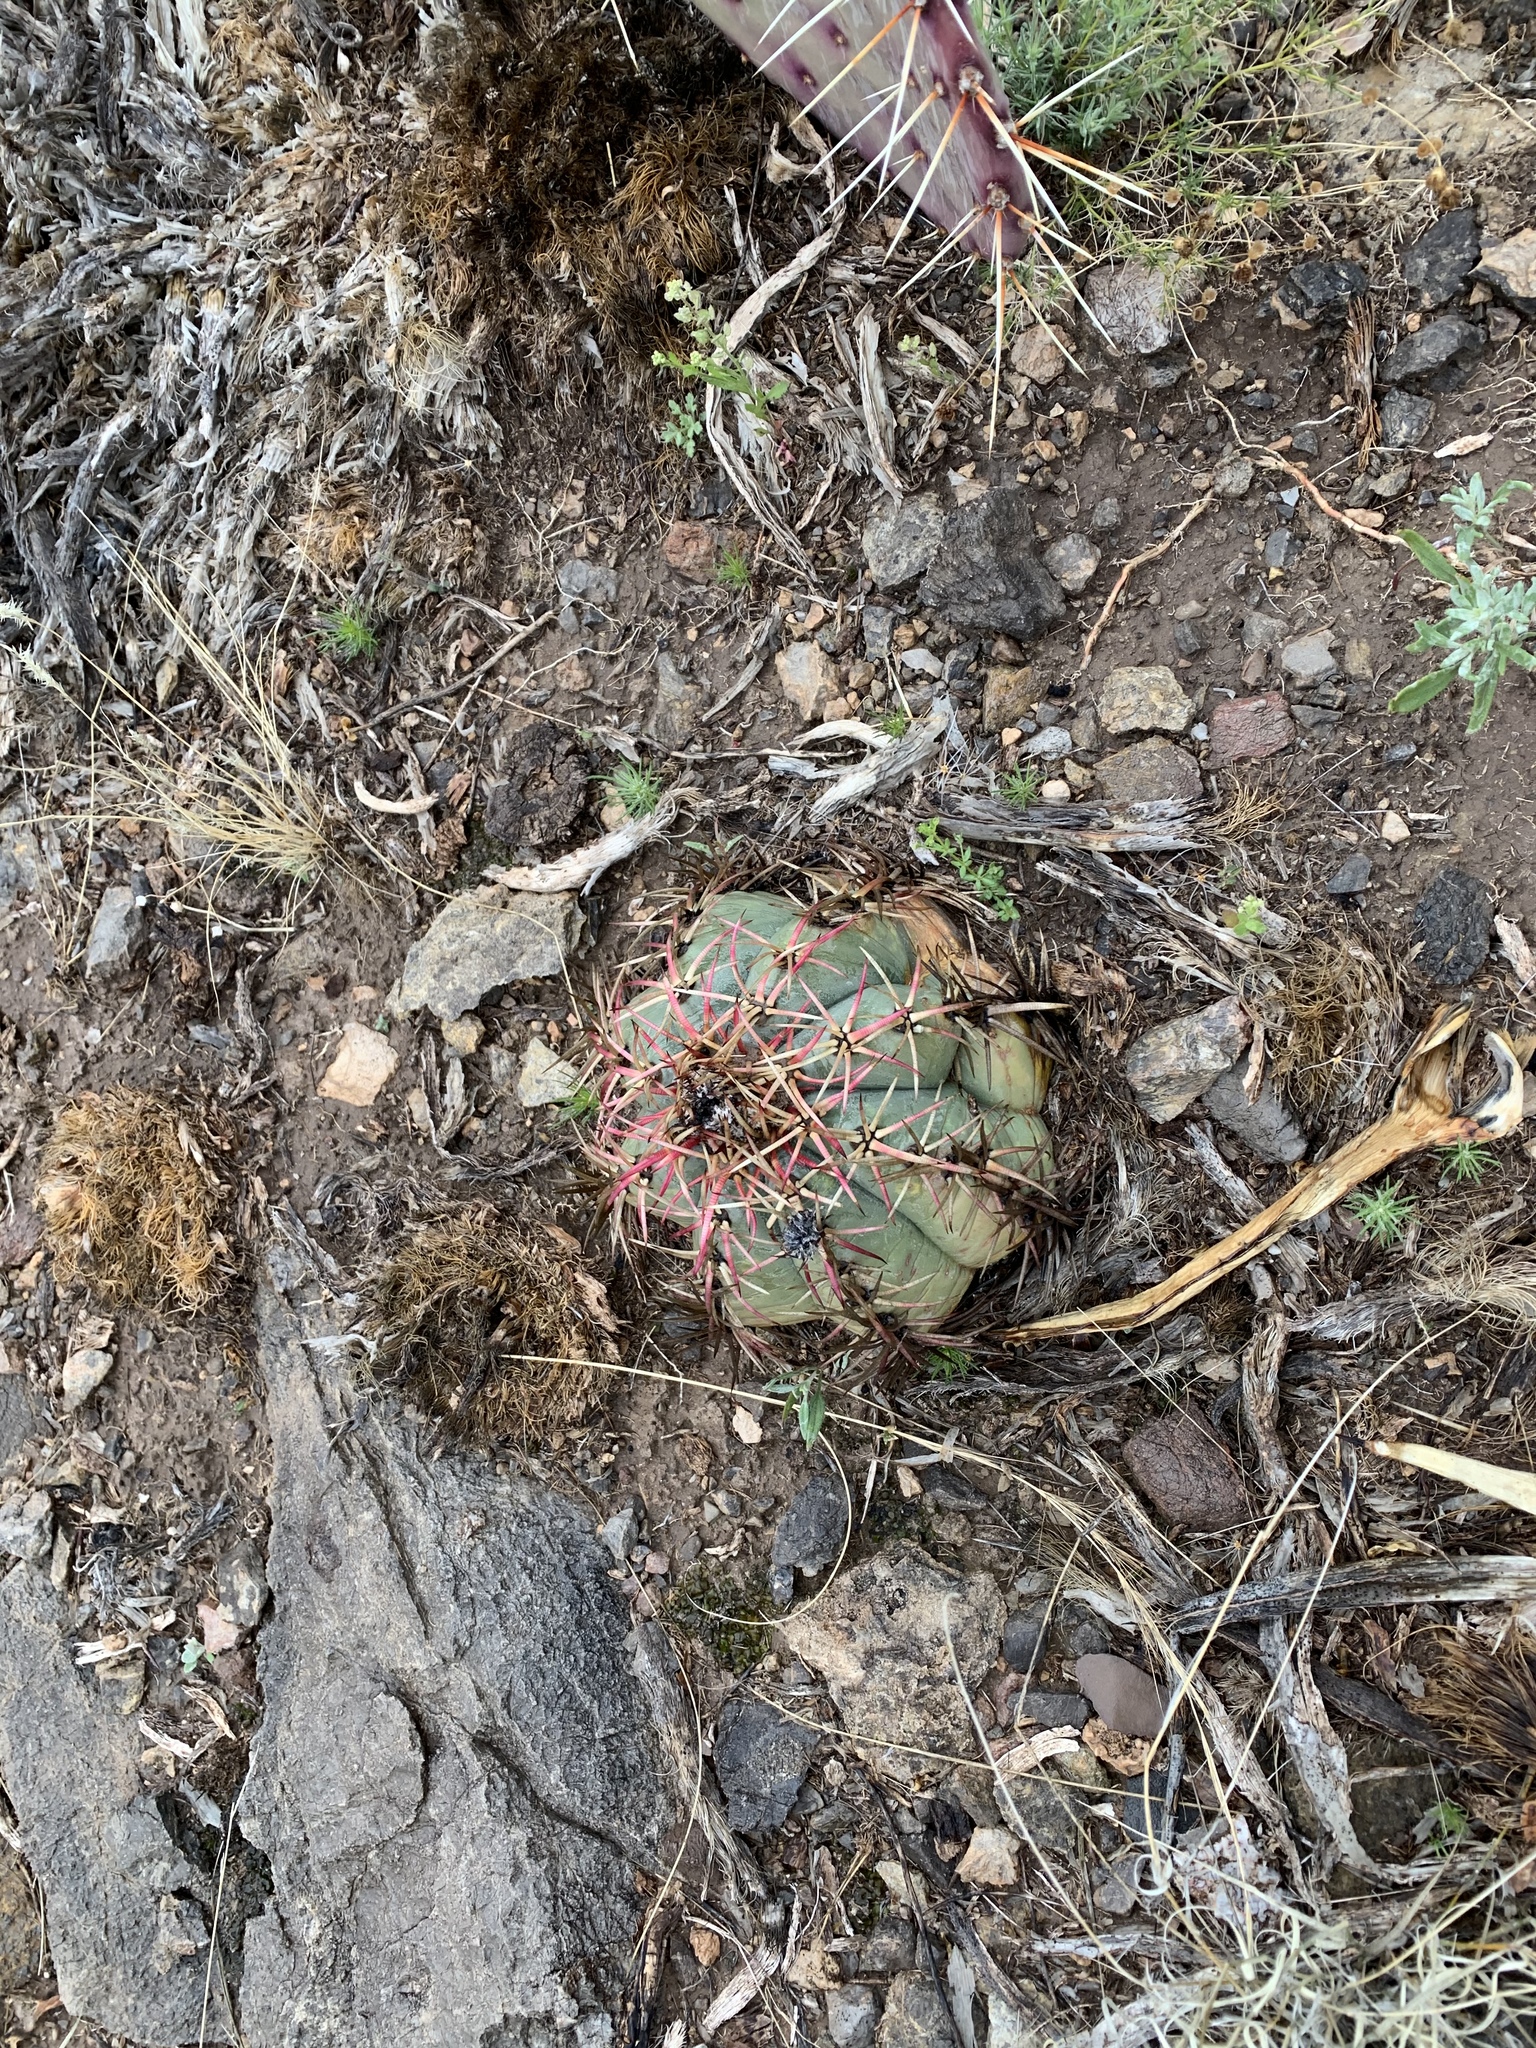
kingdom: Plantae
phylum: Tracheophyta
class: Magnoliopsida
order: Caryophyllales
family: Cactaceae
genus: Echinocactus
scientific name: Echinocactus horizonthalonius
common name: Devilshead
